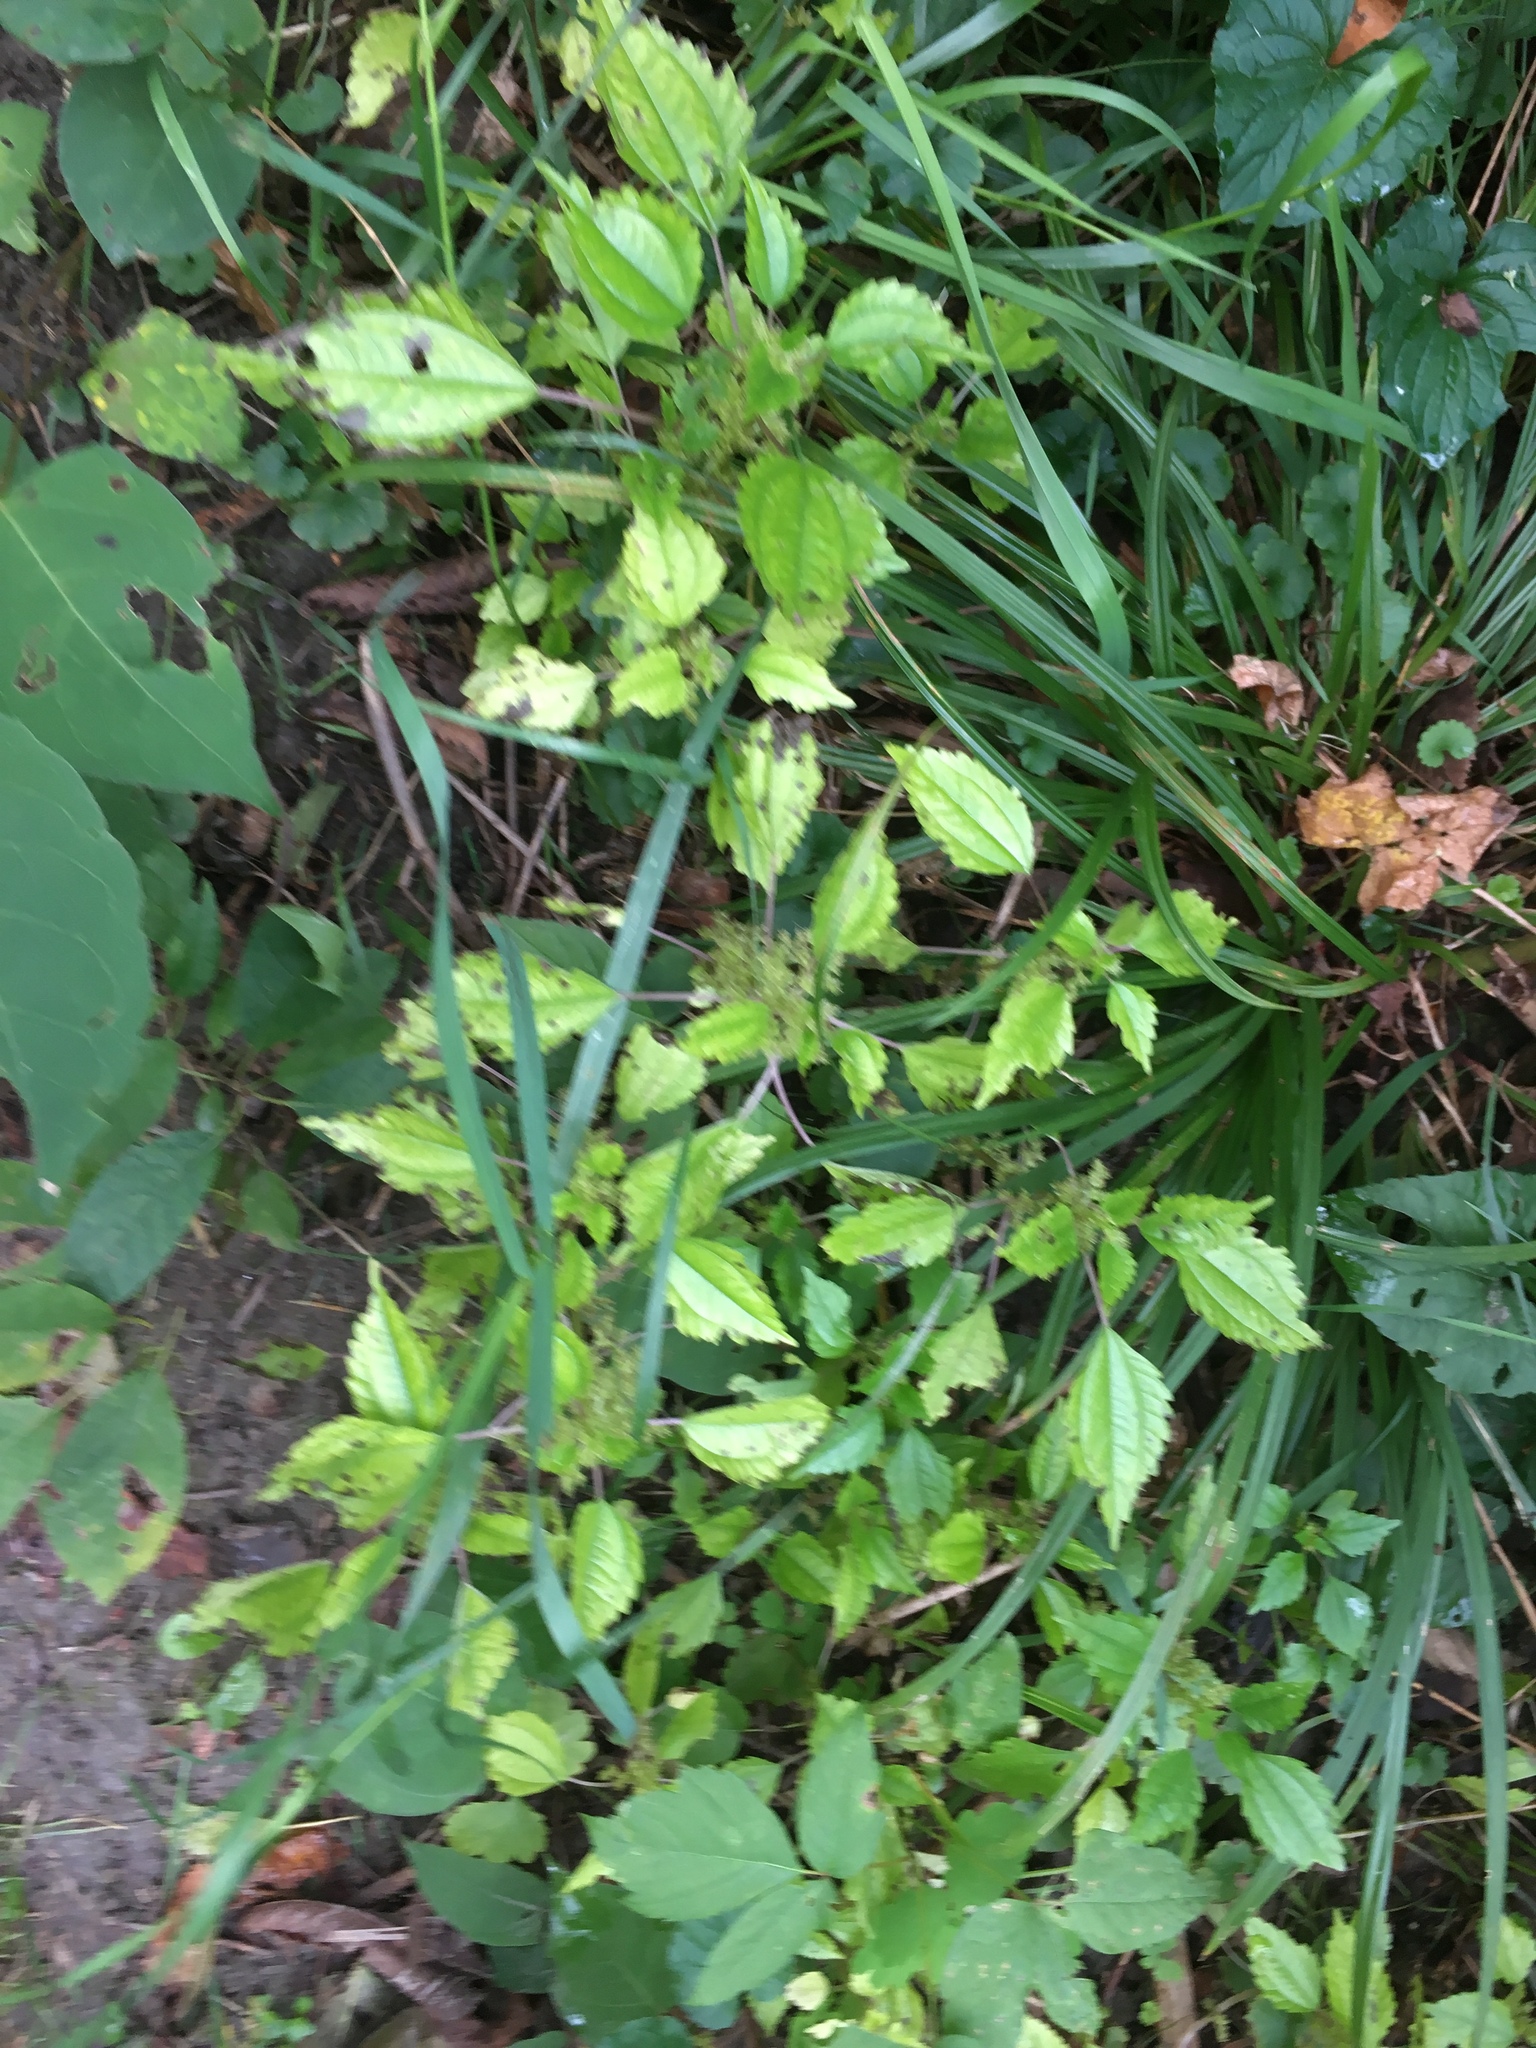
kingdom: Plantae
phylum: Tracheophyta
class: Magnoliopsida
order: Rosales
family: Urticaceae
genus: Pilea
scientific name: Pilea pumila
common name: Clearweed
